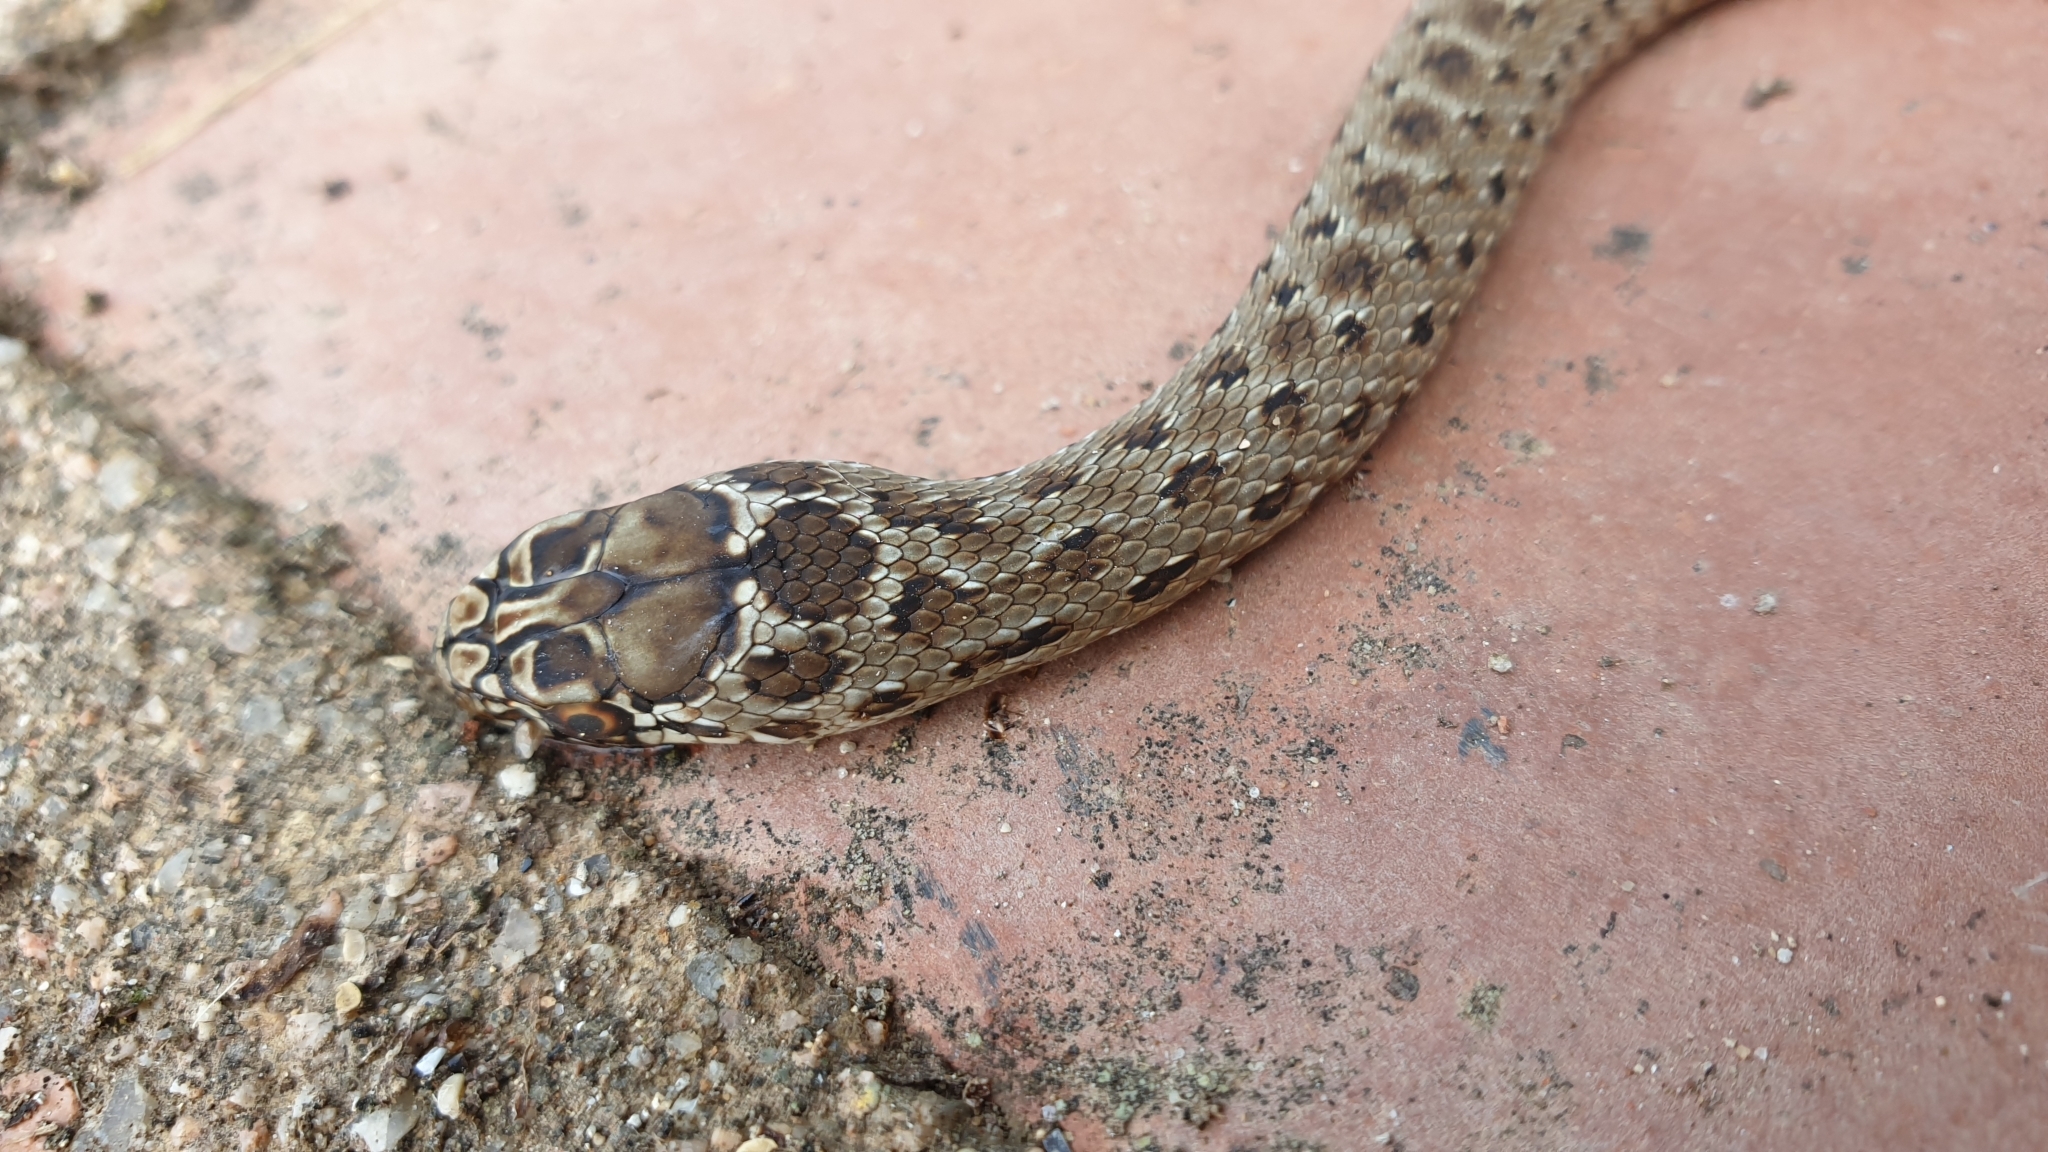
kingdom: Animalia
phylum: Chordata
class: Squamata
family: Psammophiidae
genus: Malpolon
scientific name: Malpolon monspessulanus
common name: Montpellier snake
